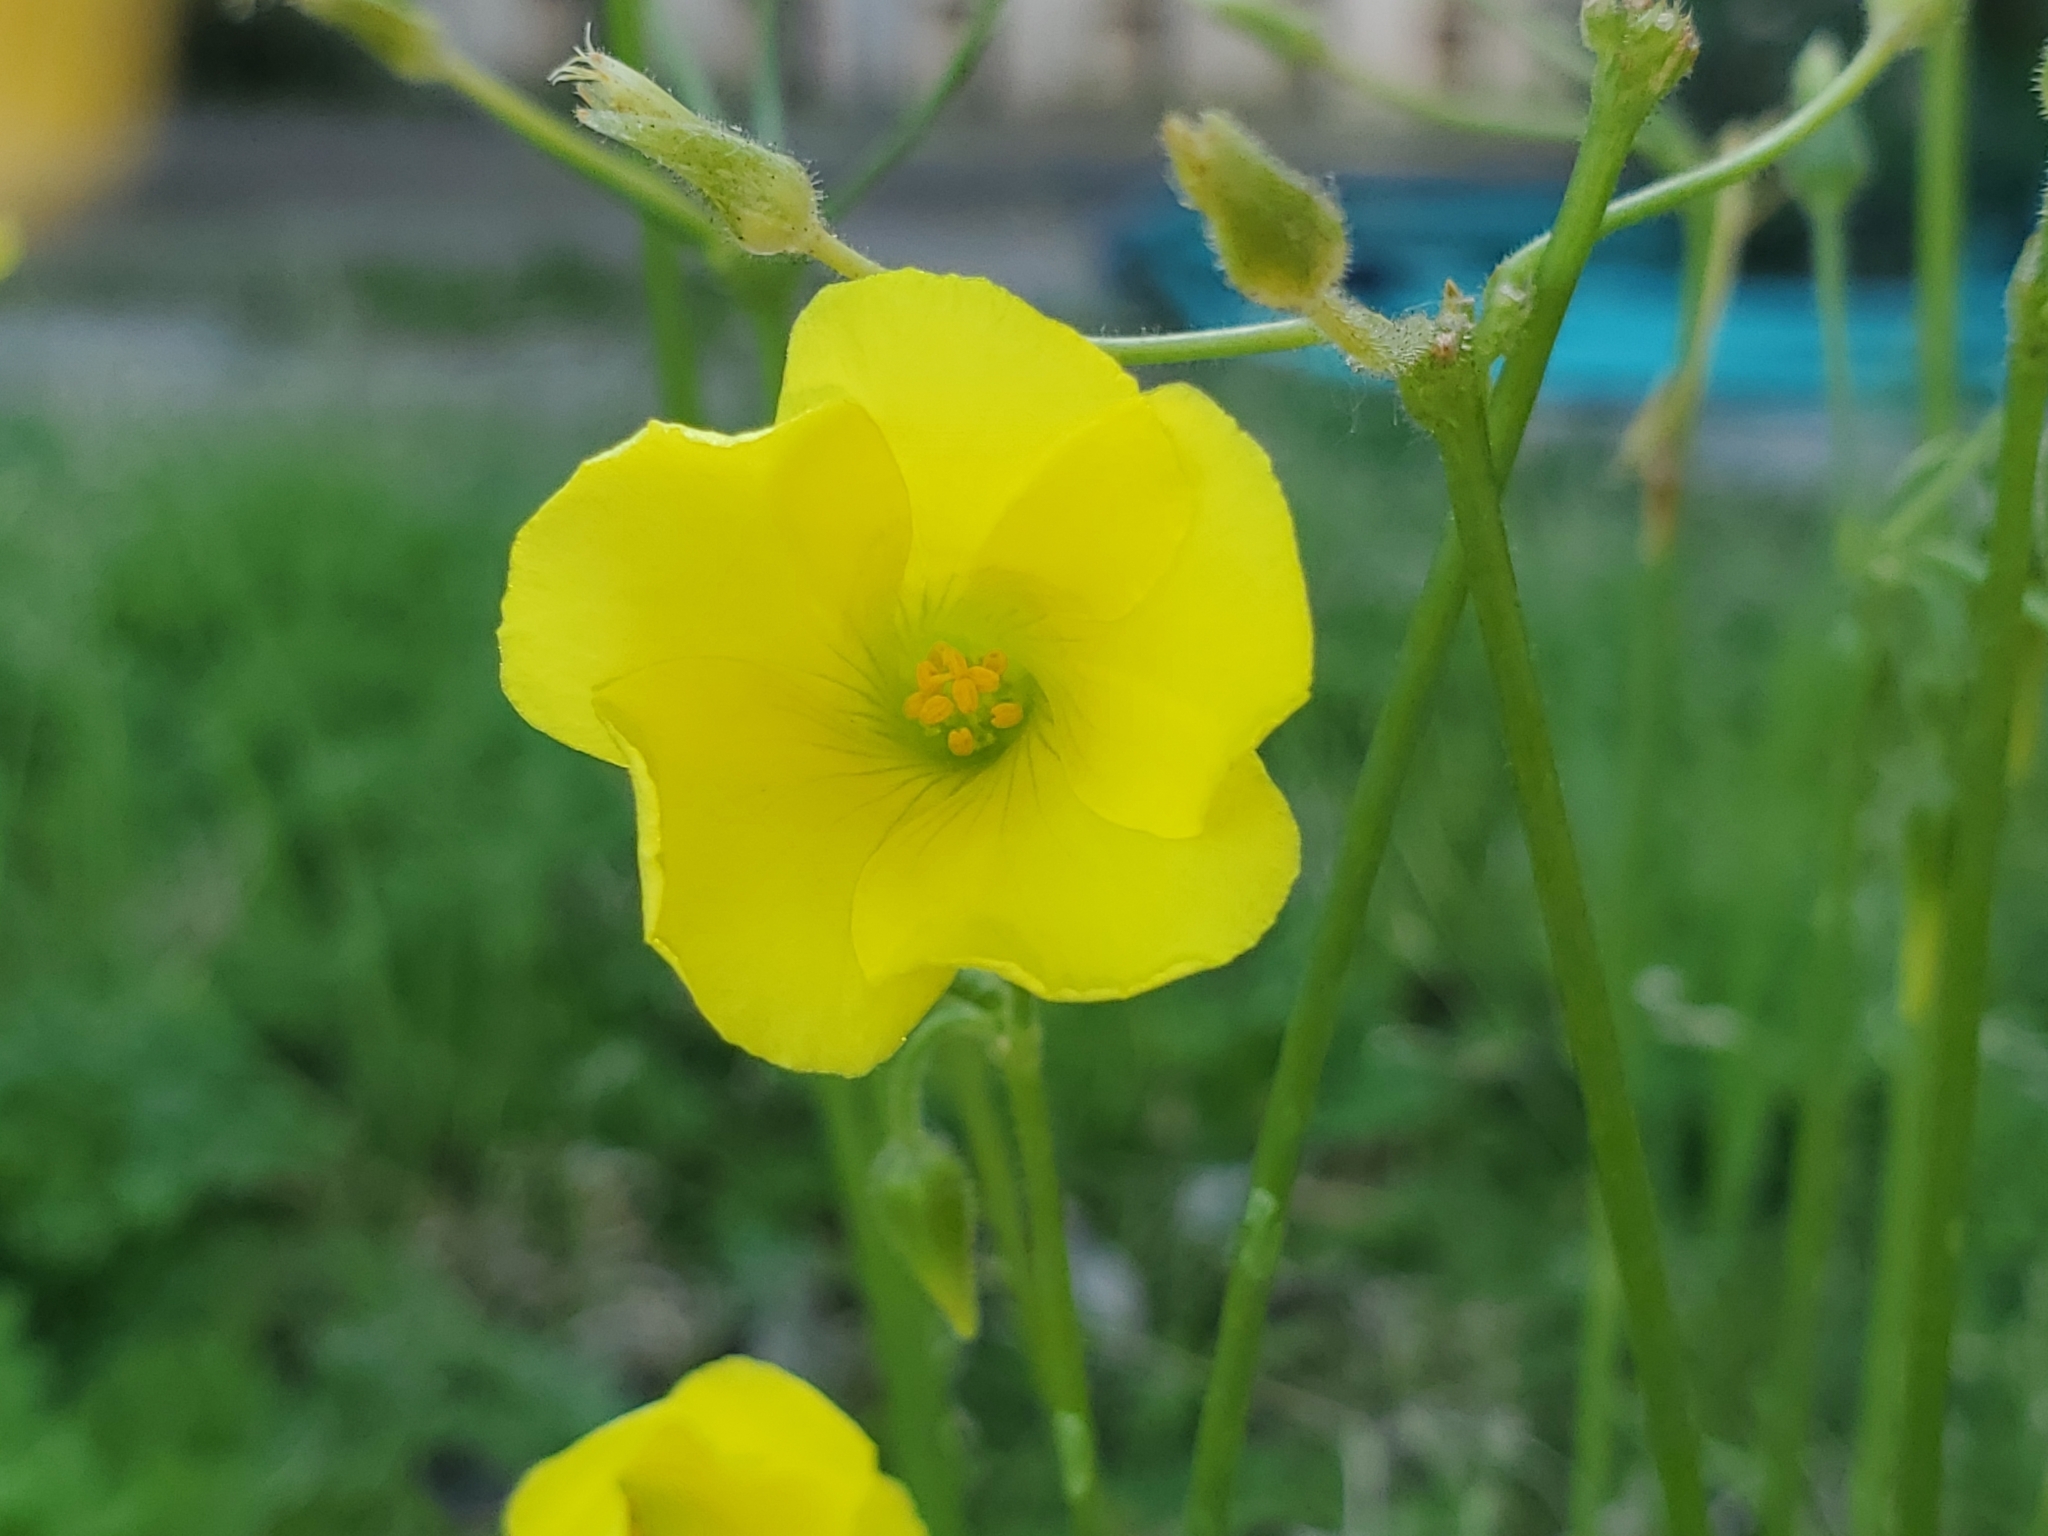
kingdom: Plantae
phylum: Tracheophyta
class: Magnoliopsida
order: Oxalidales
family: Oxalidaceae
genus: Oxalis
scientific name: Oxalis pes-caprae
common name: Bermuda-buttercup
